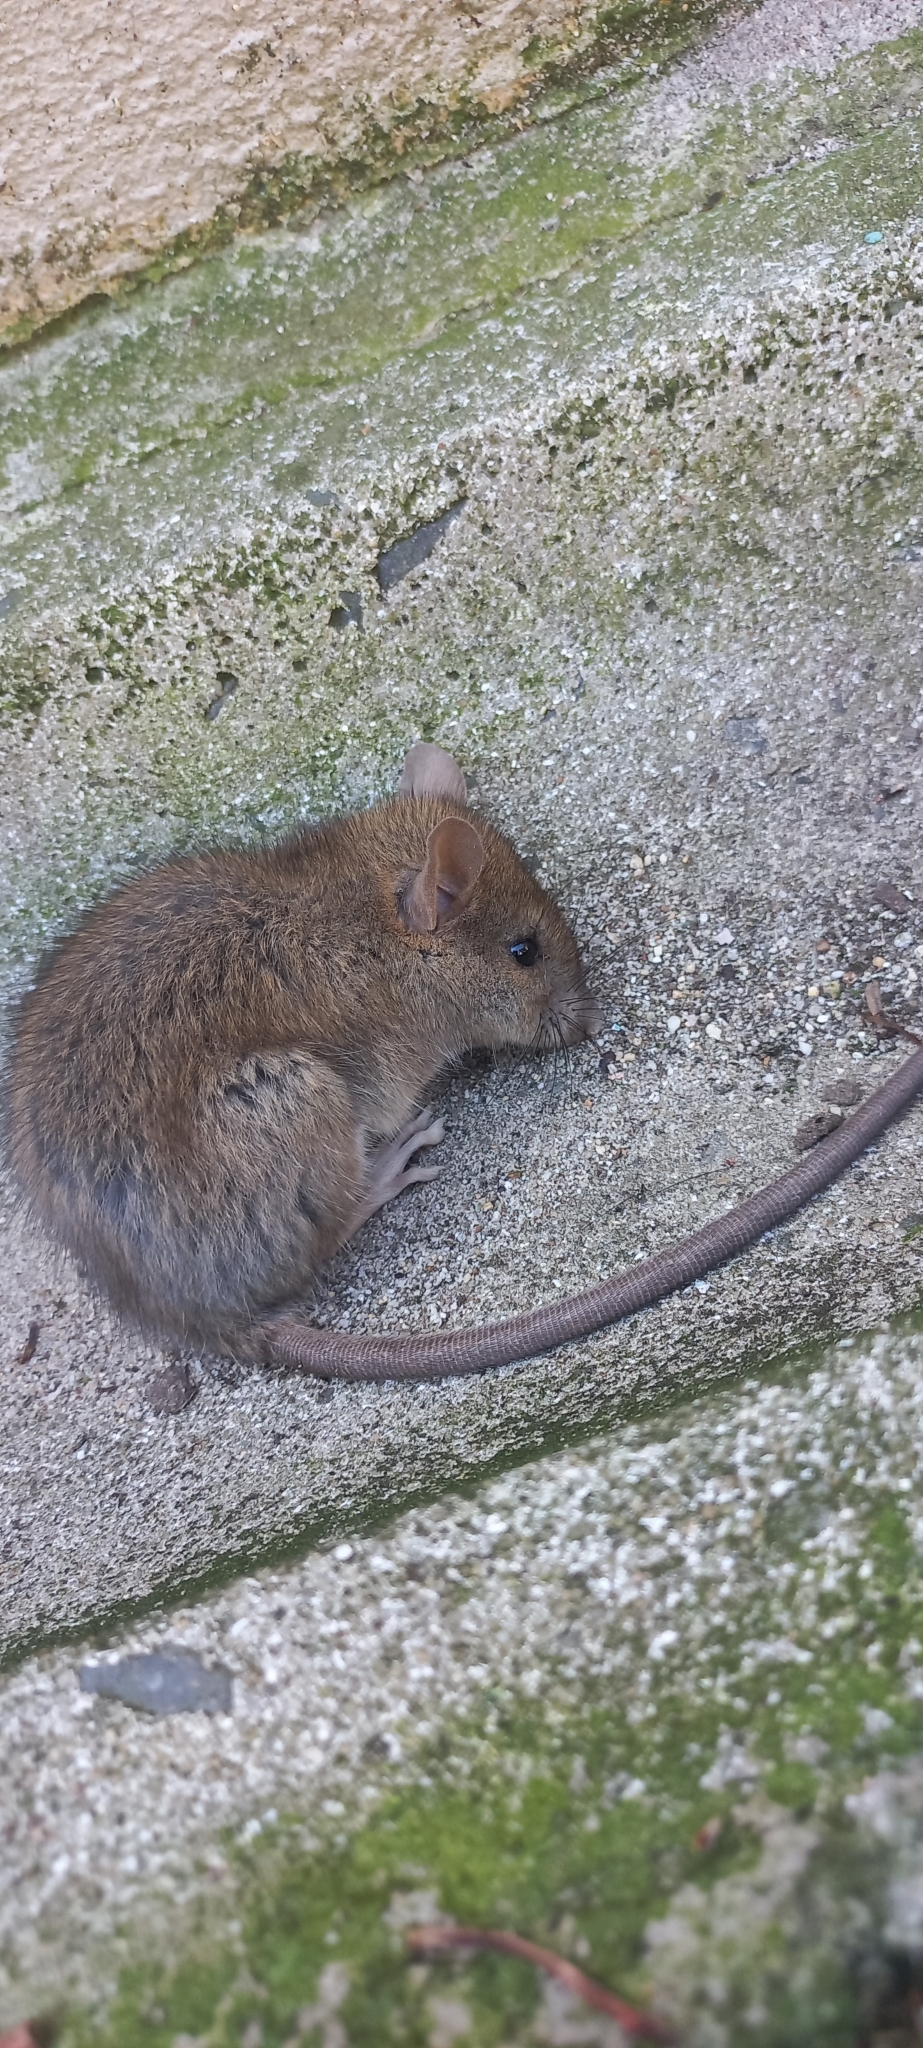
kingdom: Animalia
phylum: Chordata
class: Mammalia
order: Rodentia
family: Muridae
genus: Rattus
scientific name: Rattus rattus
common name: Black rat
